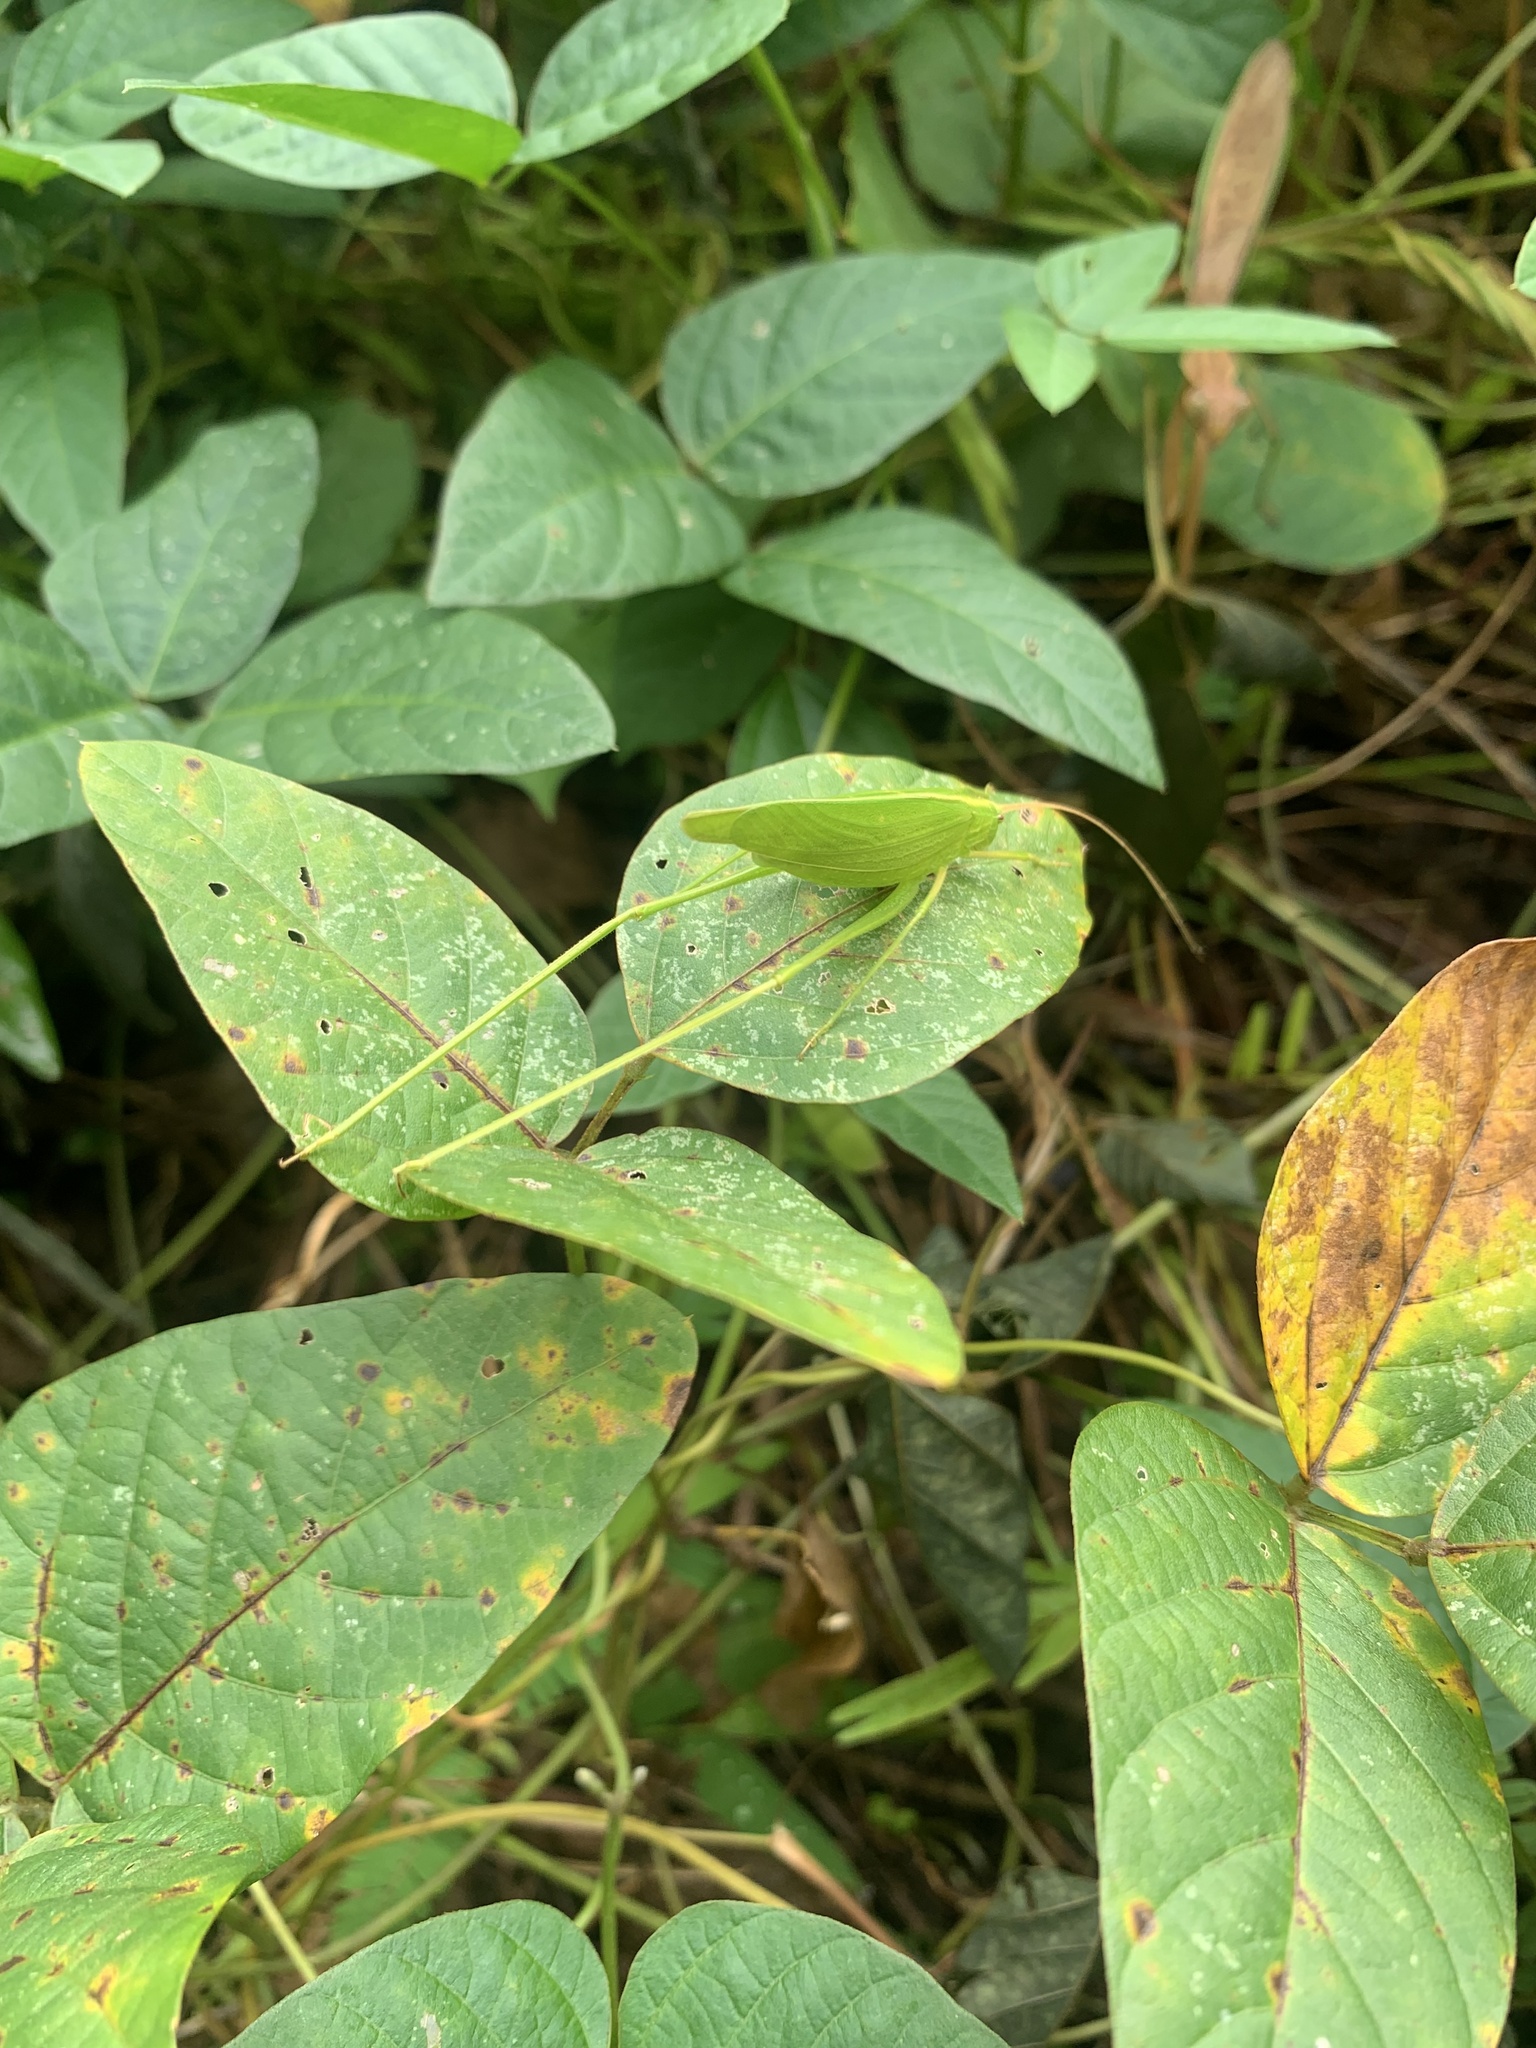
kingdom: Animalia
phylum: Arthropoda
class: Insecta
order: Orthoptera
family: Tettigoniidae
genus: Ducetia
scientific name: Ducetia japonica
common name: Pacific ducetia
